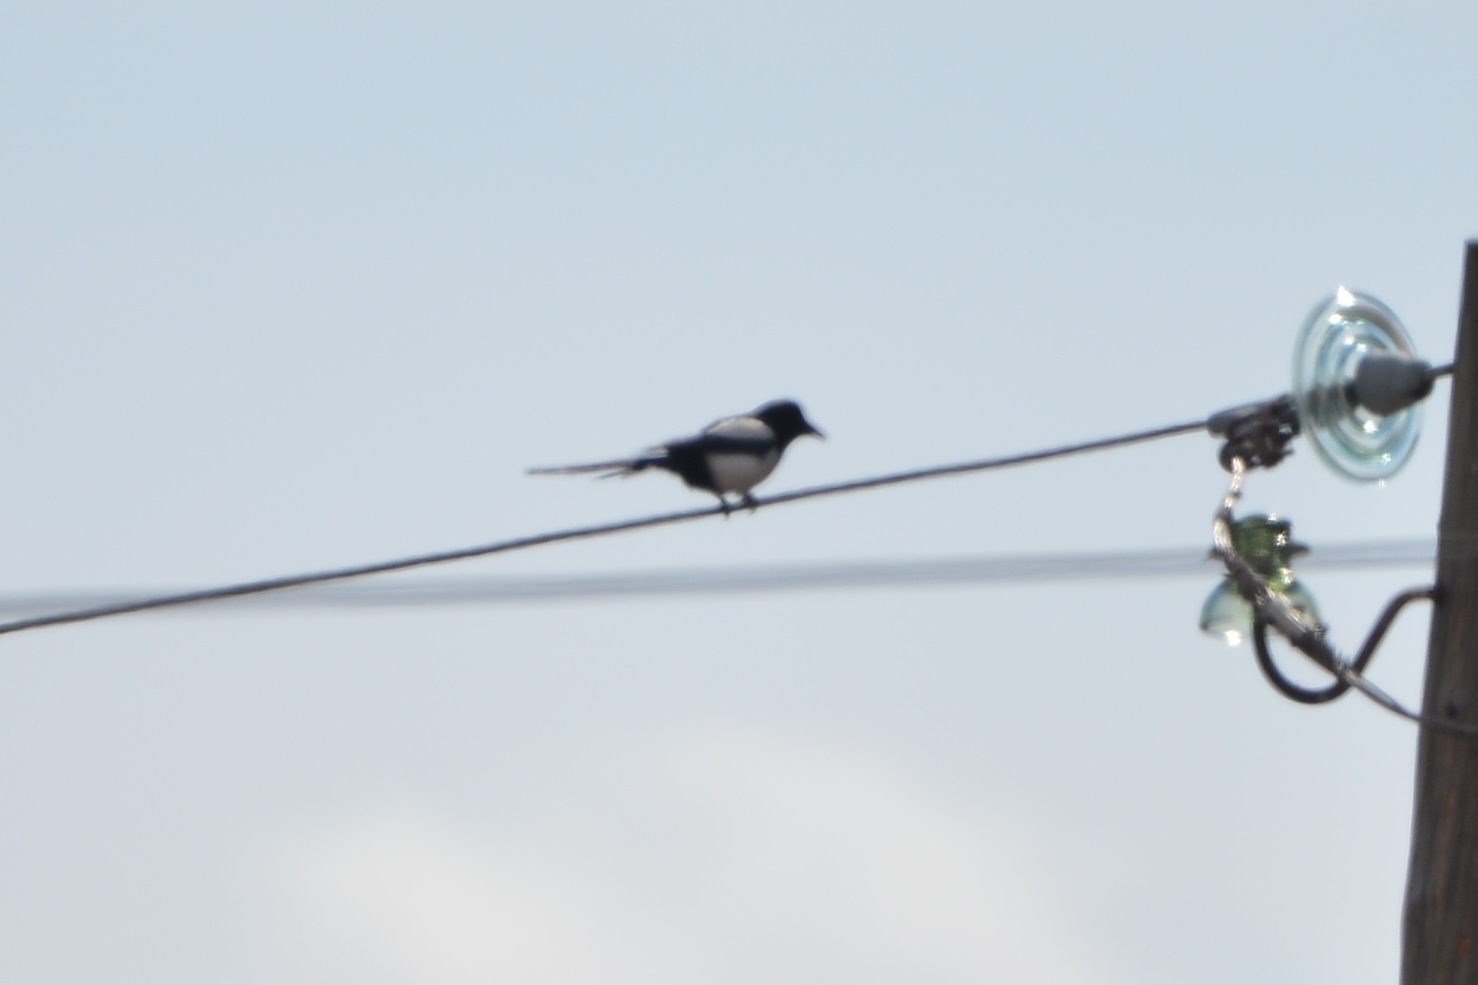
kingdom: Animalia
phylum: Chordata
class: Aves
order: Passeriformes
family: Corvidae
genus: Pica
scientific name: Pica pica
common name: Eurasian magpie
